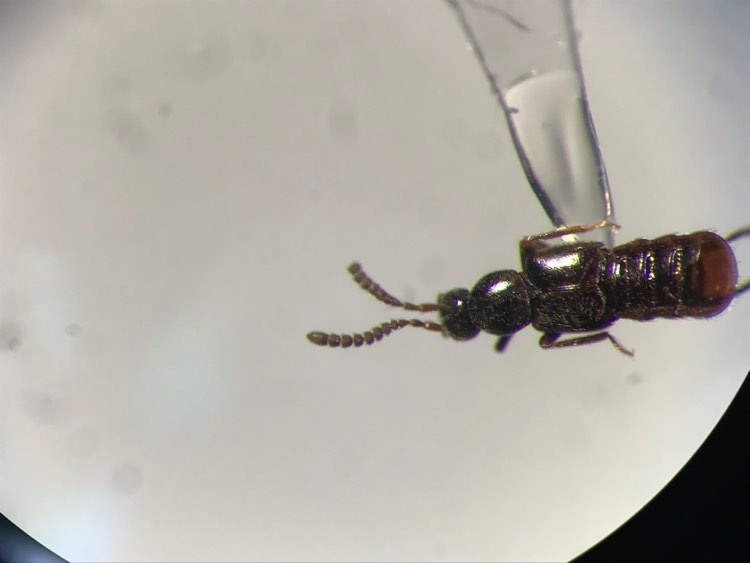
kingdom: Animalia
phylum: Arthropoda
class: Insecta
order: Coleoptera
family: Staphylinidae
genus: Calodera
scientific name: Calodera parviceps
